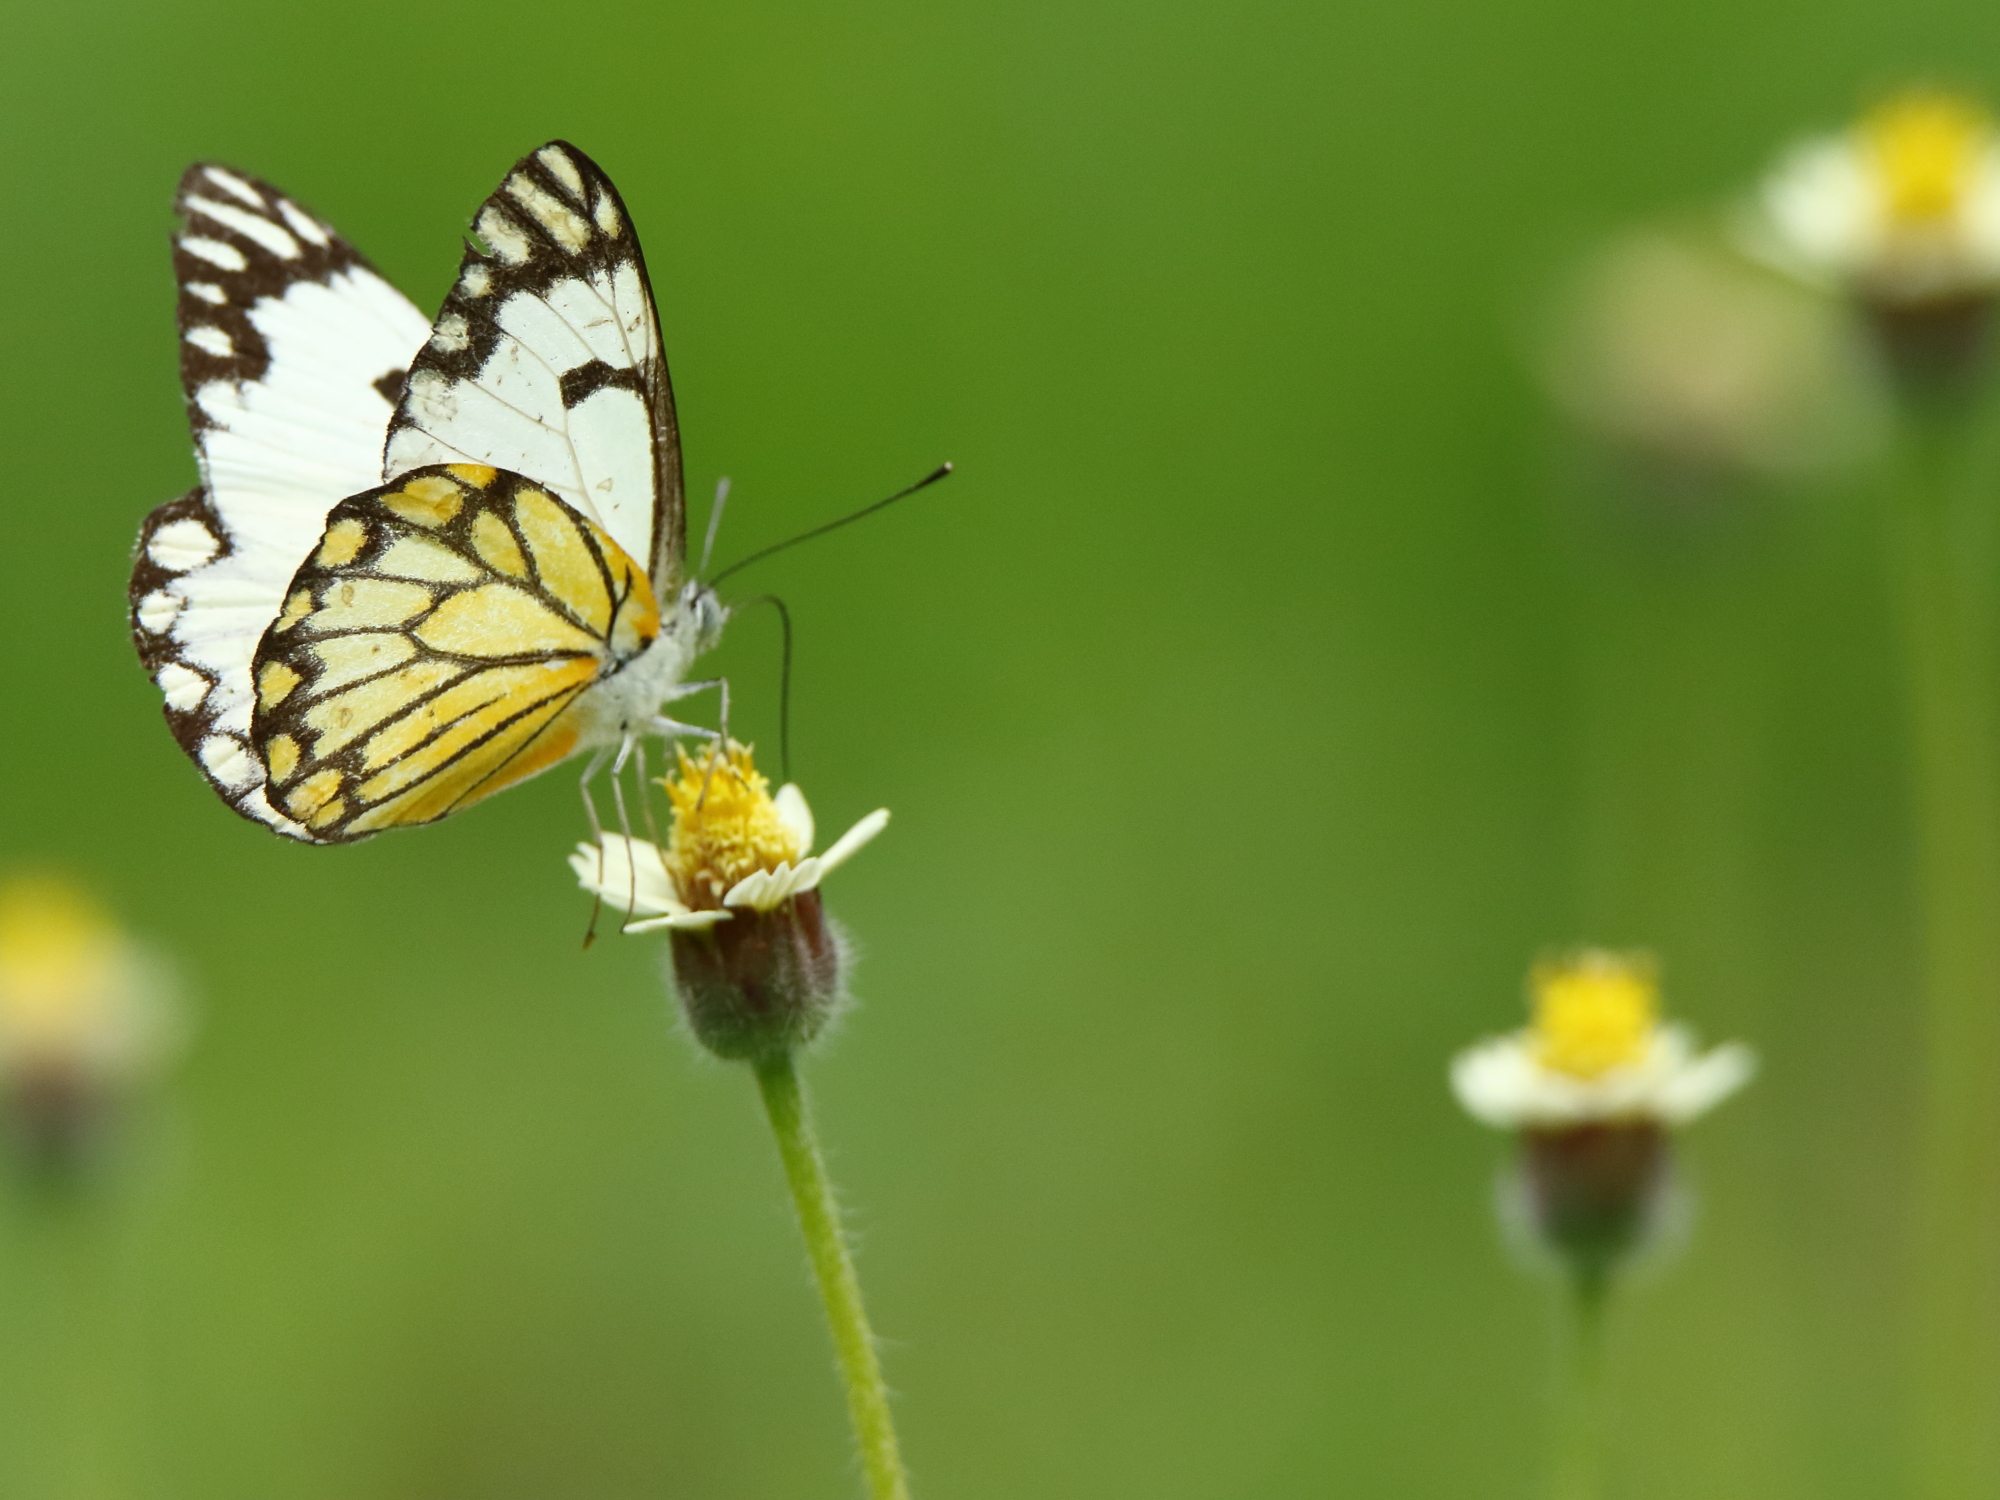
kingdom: Animalia
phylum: Arthropoda
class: Insecta
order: Lepidoptera
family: Pieridae
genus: Belenois
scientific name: Belenois aurota
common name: Brown-veined white
